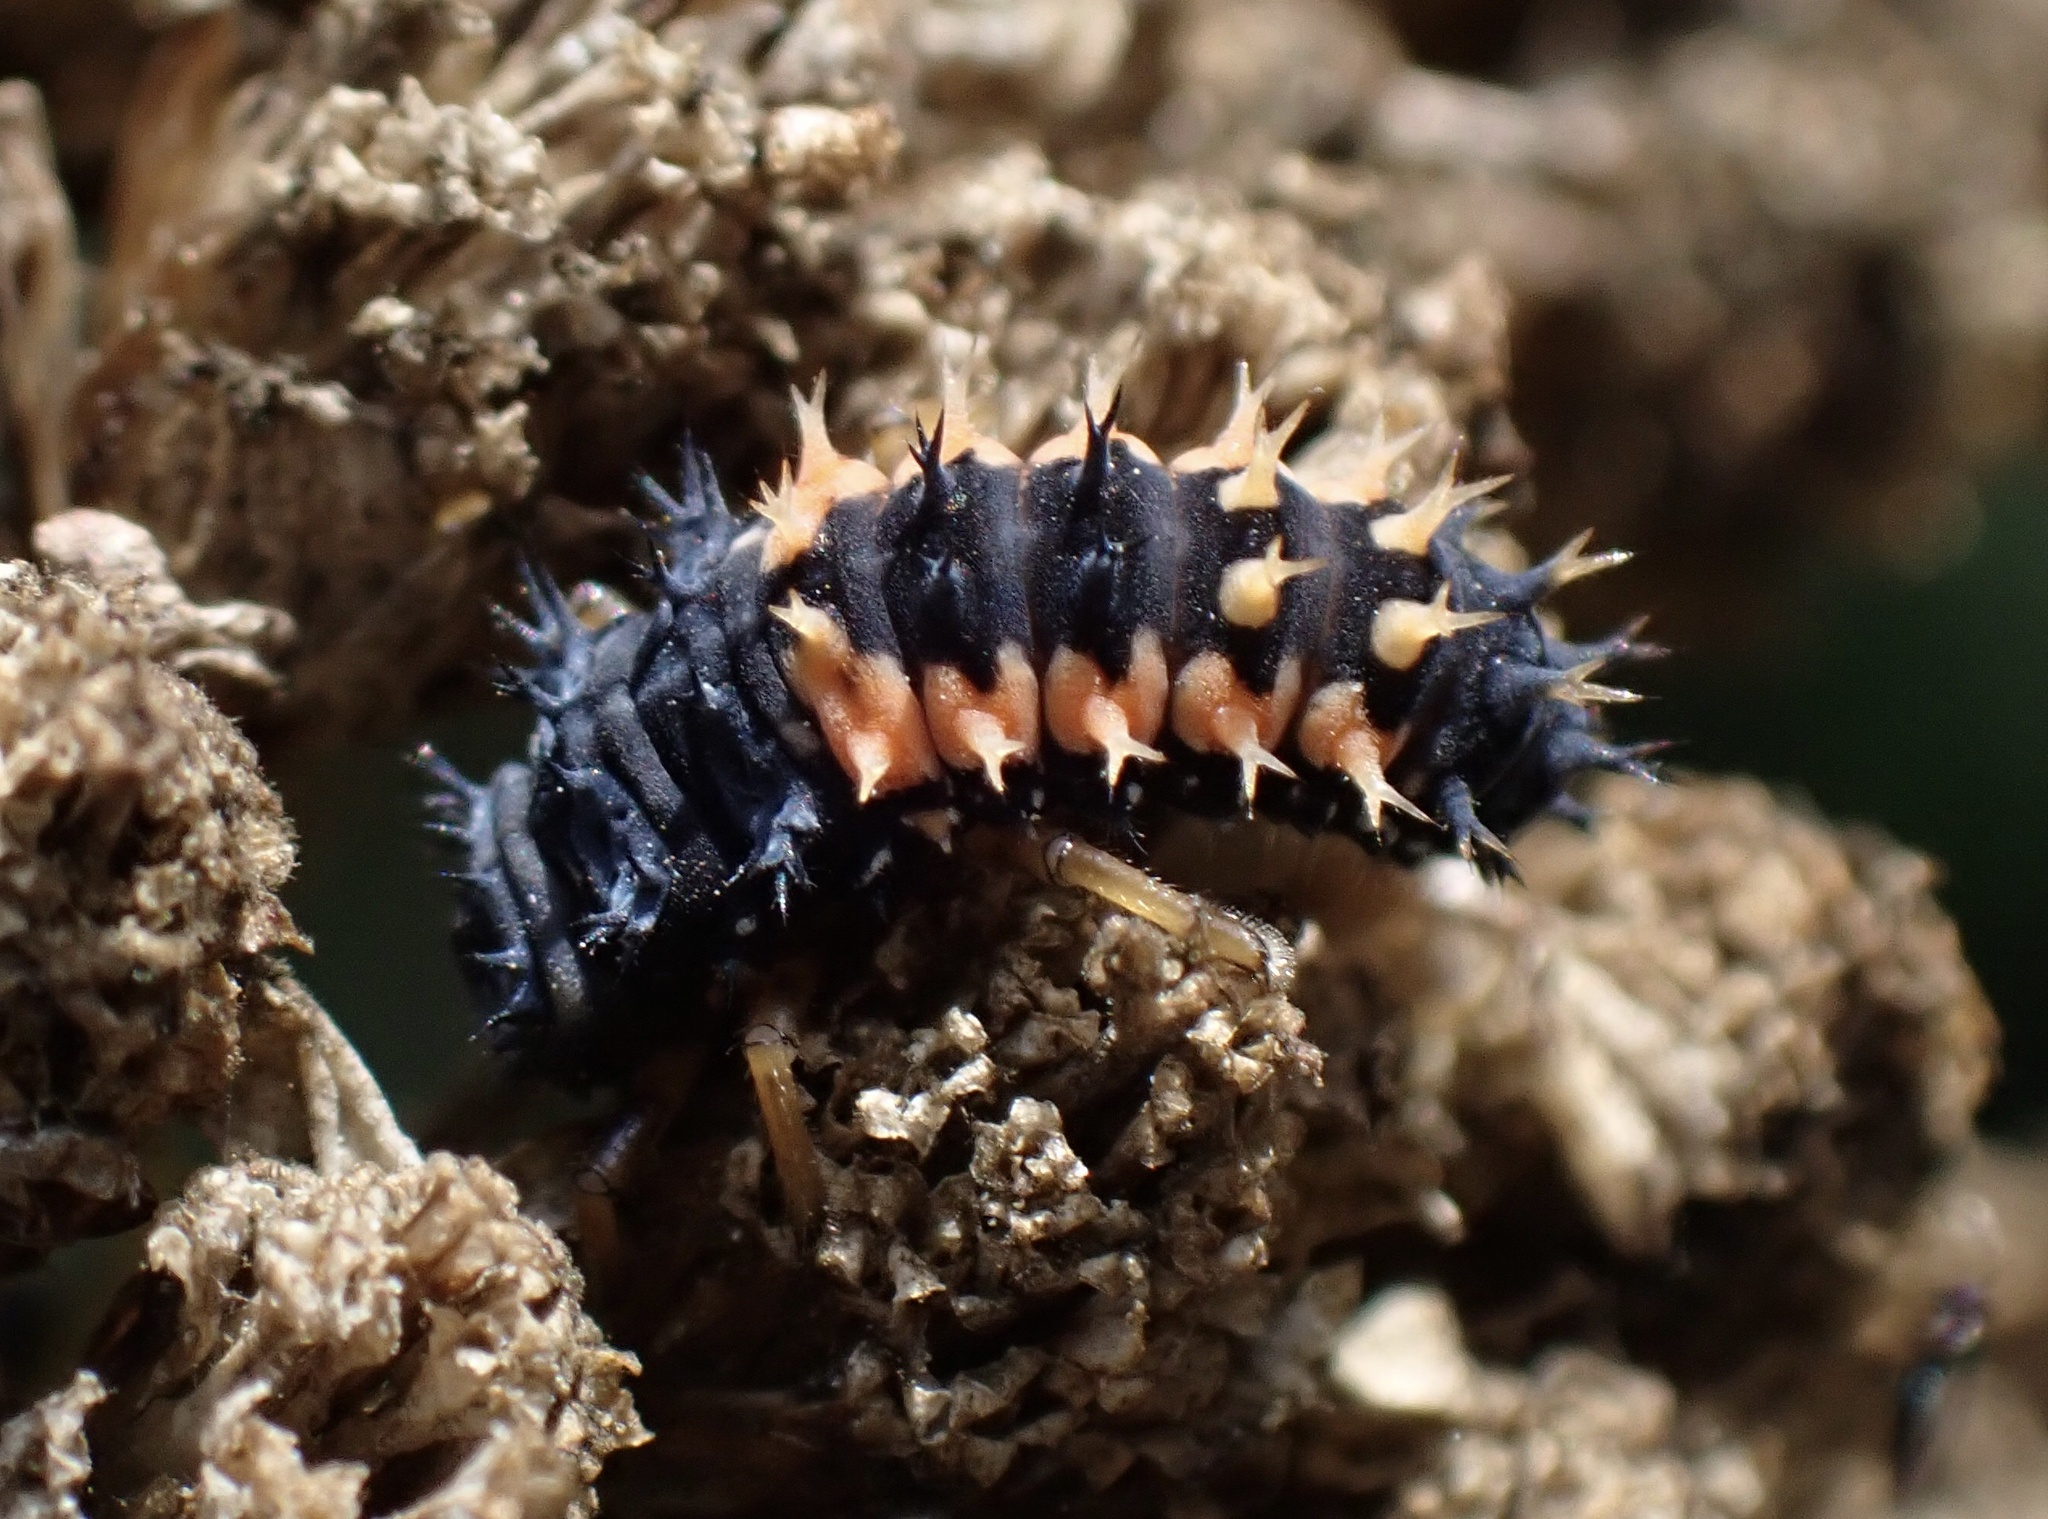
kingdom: Animalia
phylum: Arthropoda
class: Insecta
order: Coleoptera
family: Coccinellidae
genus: Harmonia
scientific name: Harmonia axyridis
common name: Harlequin ladybird
